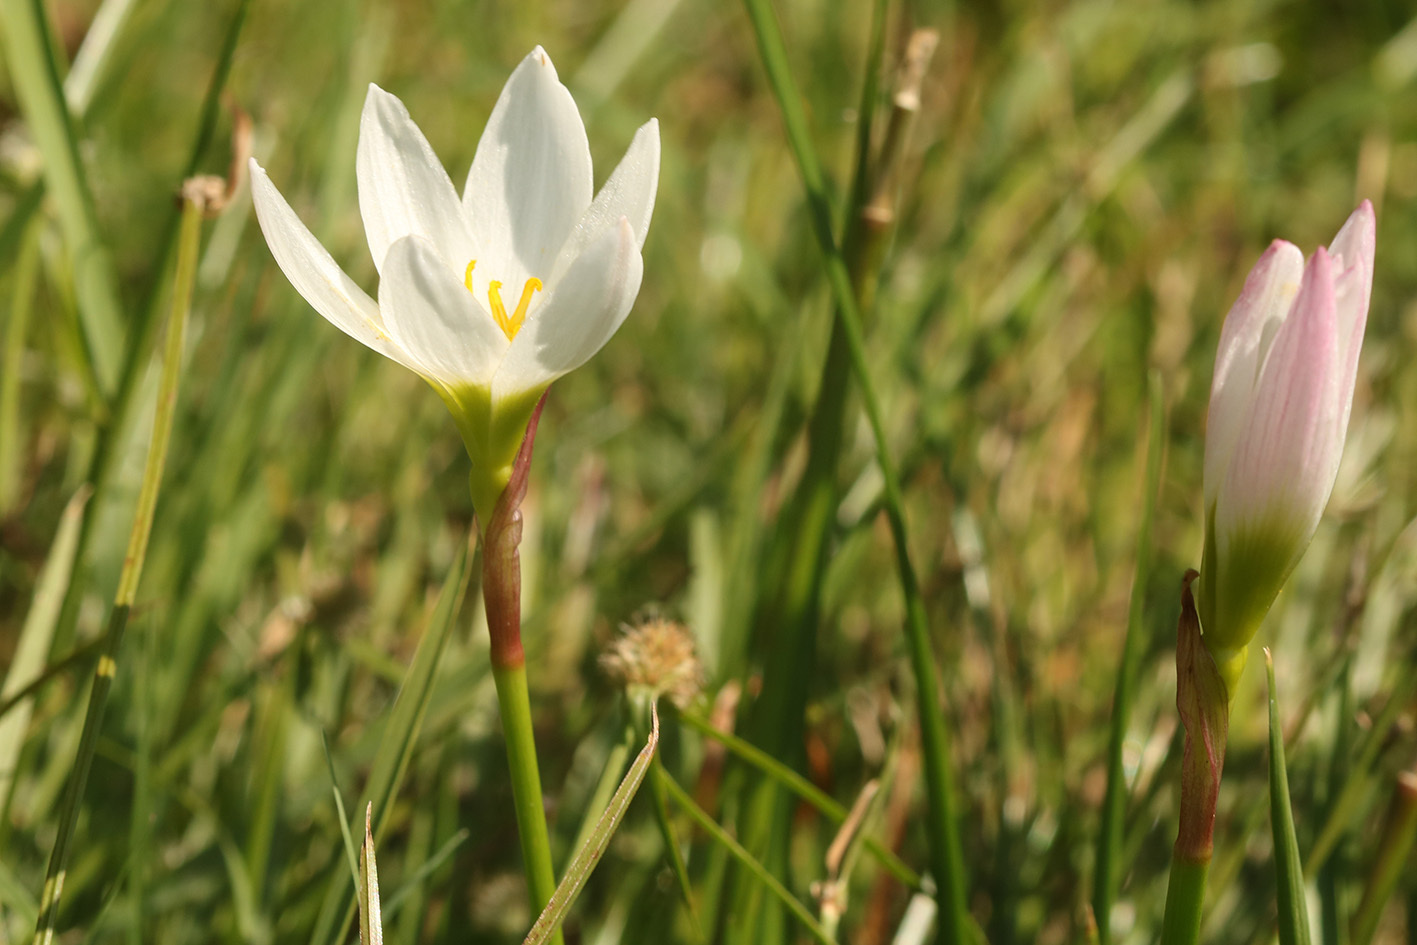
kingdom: Plantae
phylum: Tracheophyta
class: Liliopsida
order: Asparagales
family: Amaryllidaceae
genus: Zephyranthes
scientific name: Zephyranthes candida
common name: Autumn zephyrlily
